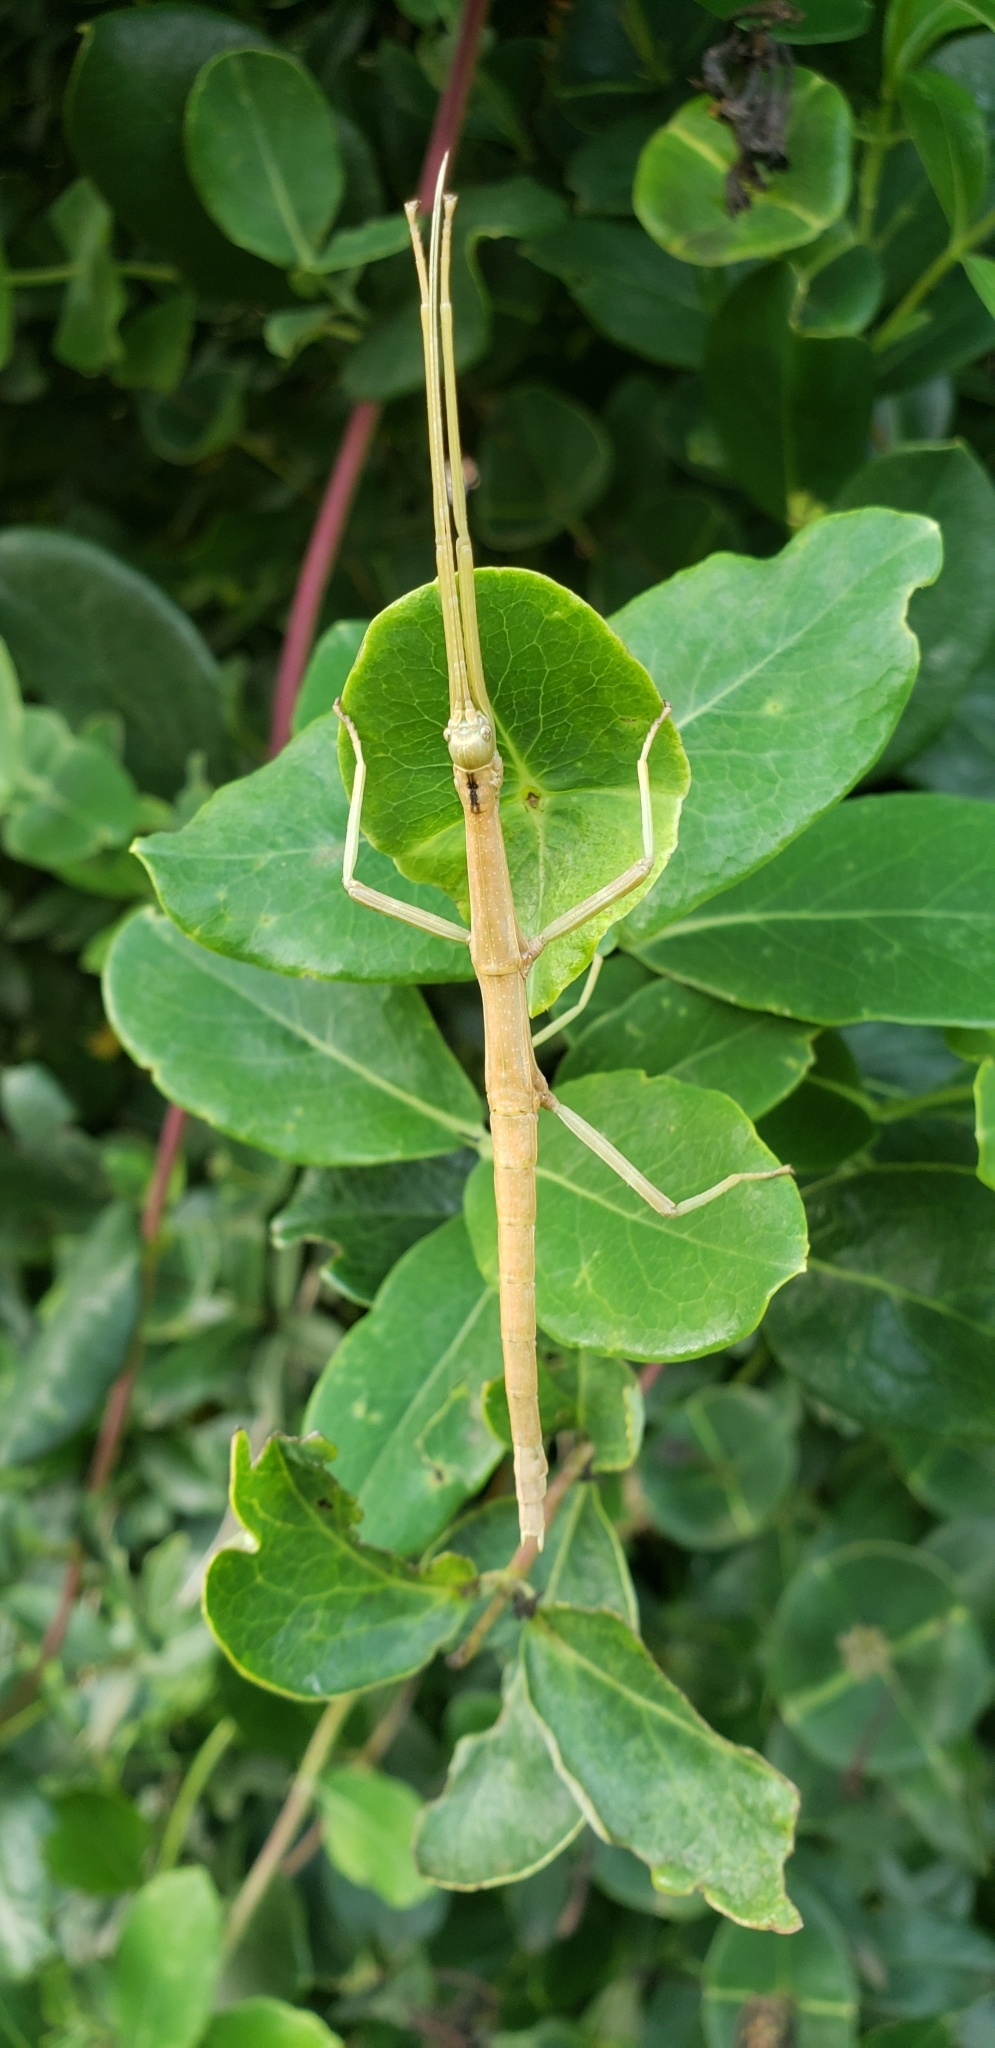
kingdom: Animalia
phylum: Arthropoda
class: Insecta
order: Phasmida
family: Diapheromeridae
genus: Diapheromera
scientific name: Diapheromera femorata
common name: Common american walkingstick
